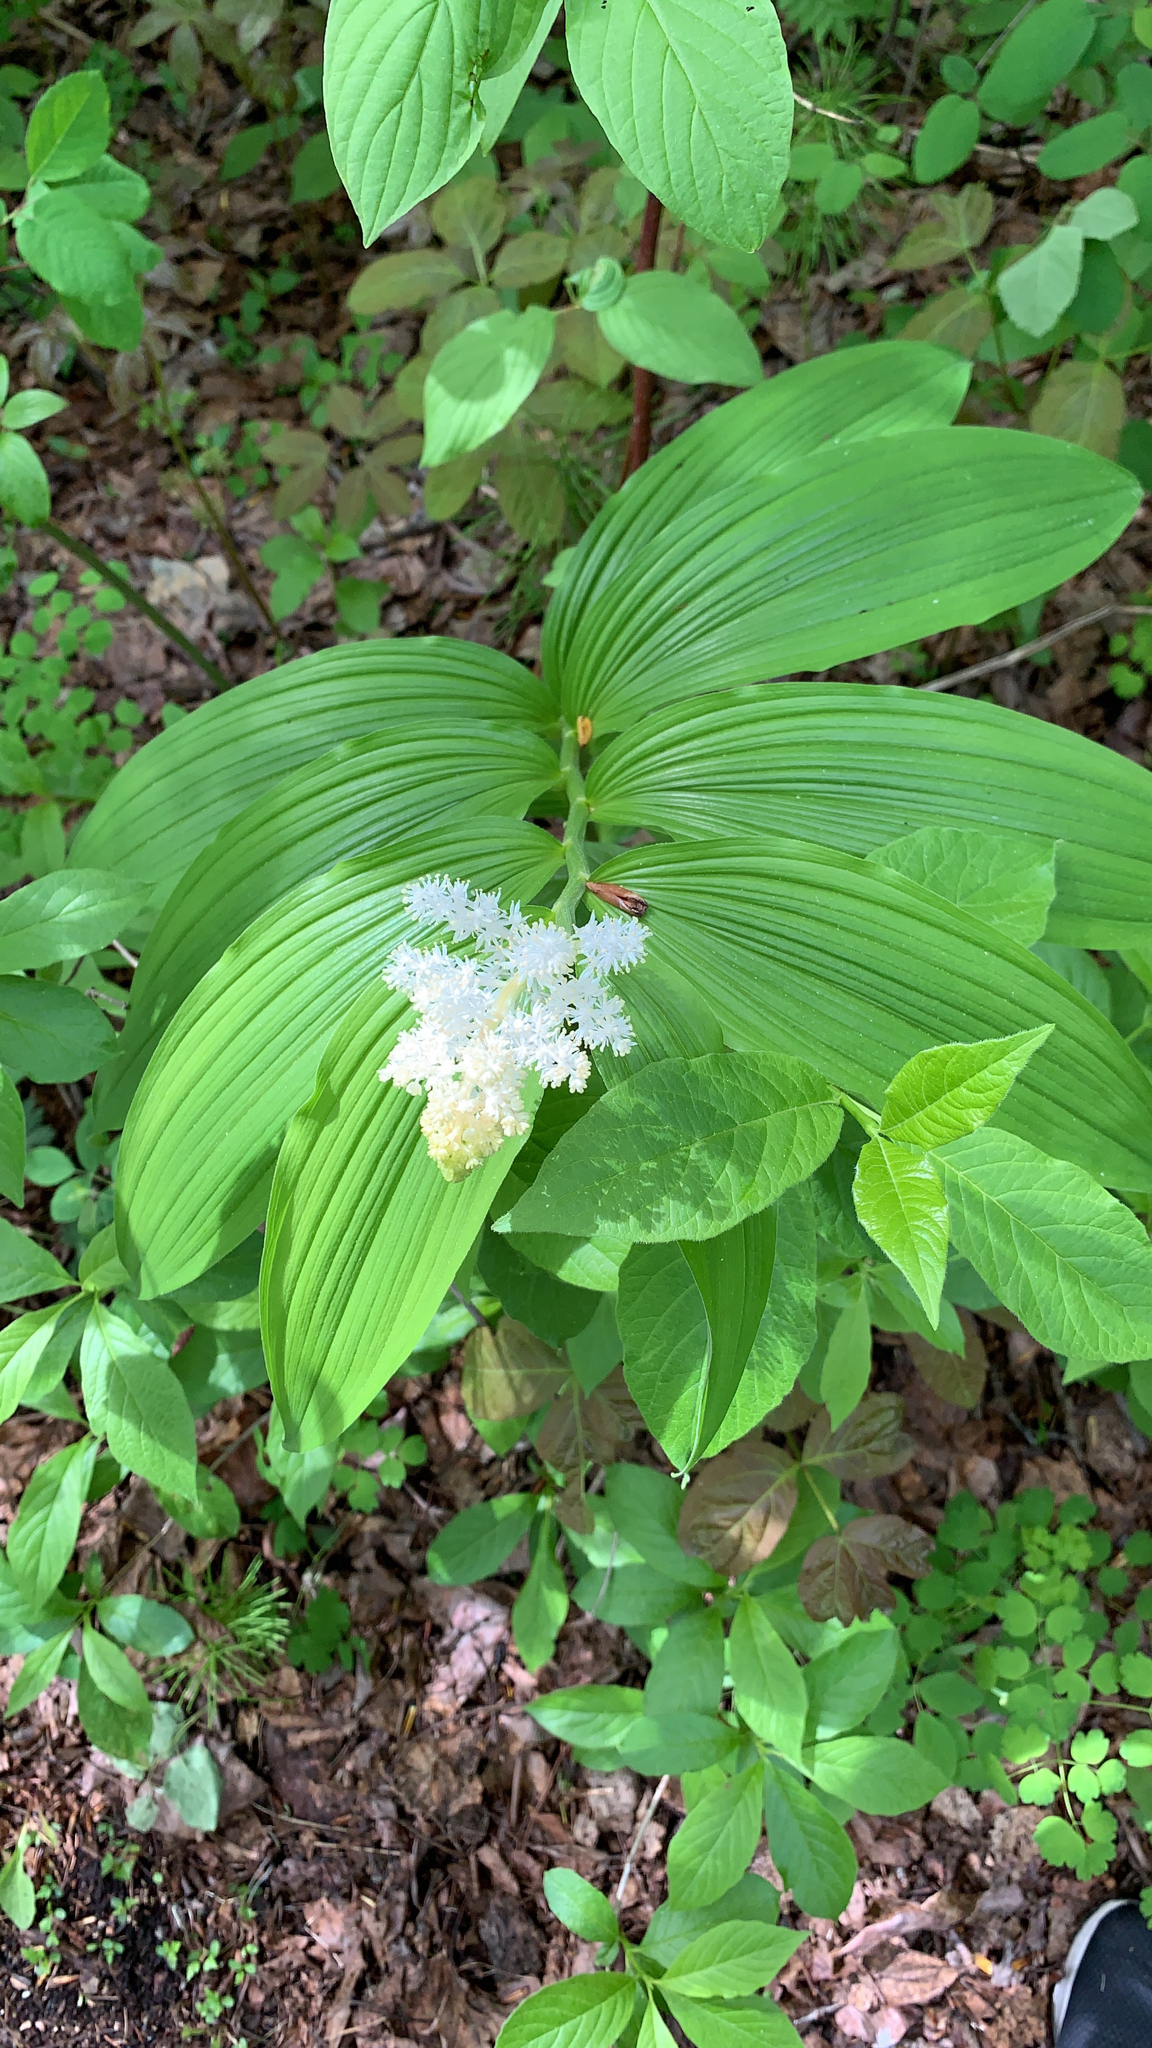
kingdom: Plantae
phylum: Tracheophyta
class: Liliopsida
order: Asparagales
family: Asparagaceae
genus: Maianthemum
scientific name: Maianthemum racemosum
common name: False spikenard
